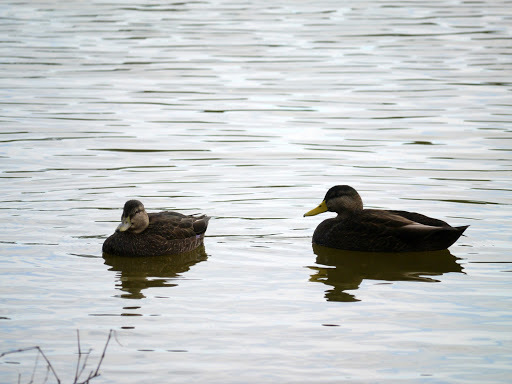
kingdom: Animalia
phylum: Chordata
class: Aves
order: Anseriformes
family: Anatidae
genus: Anas
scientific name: Anas rubripes
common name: American black duck
